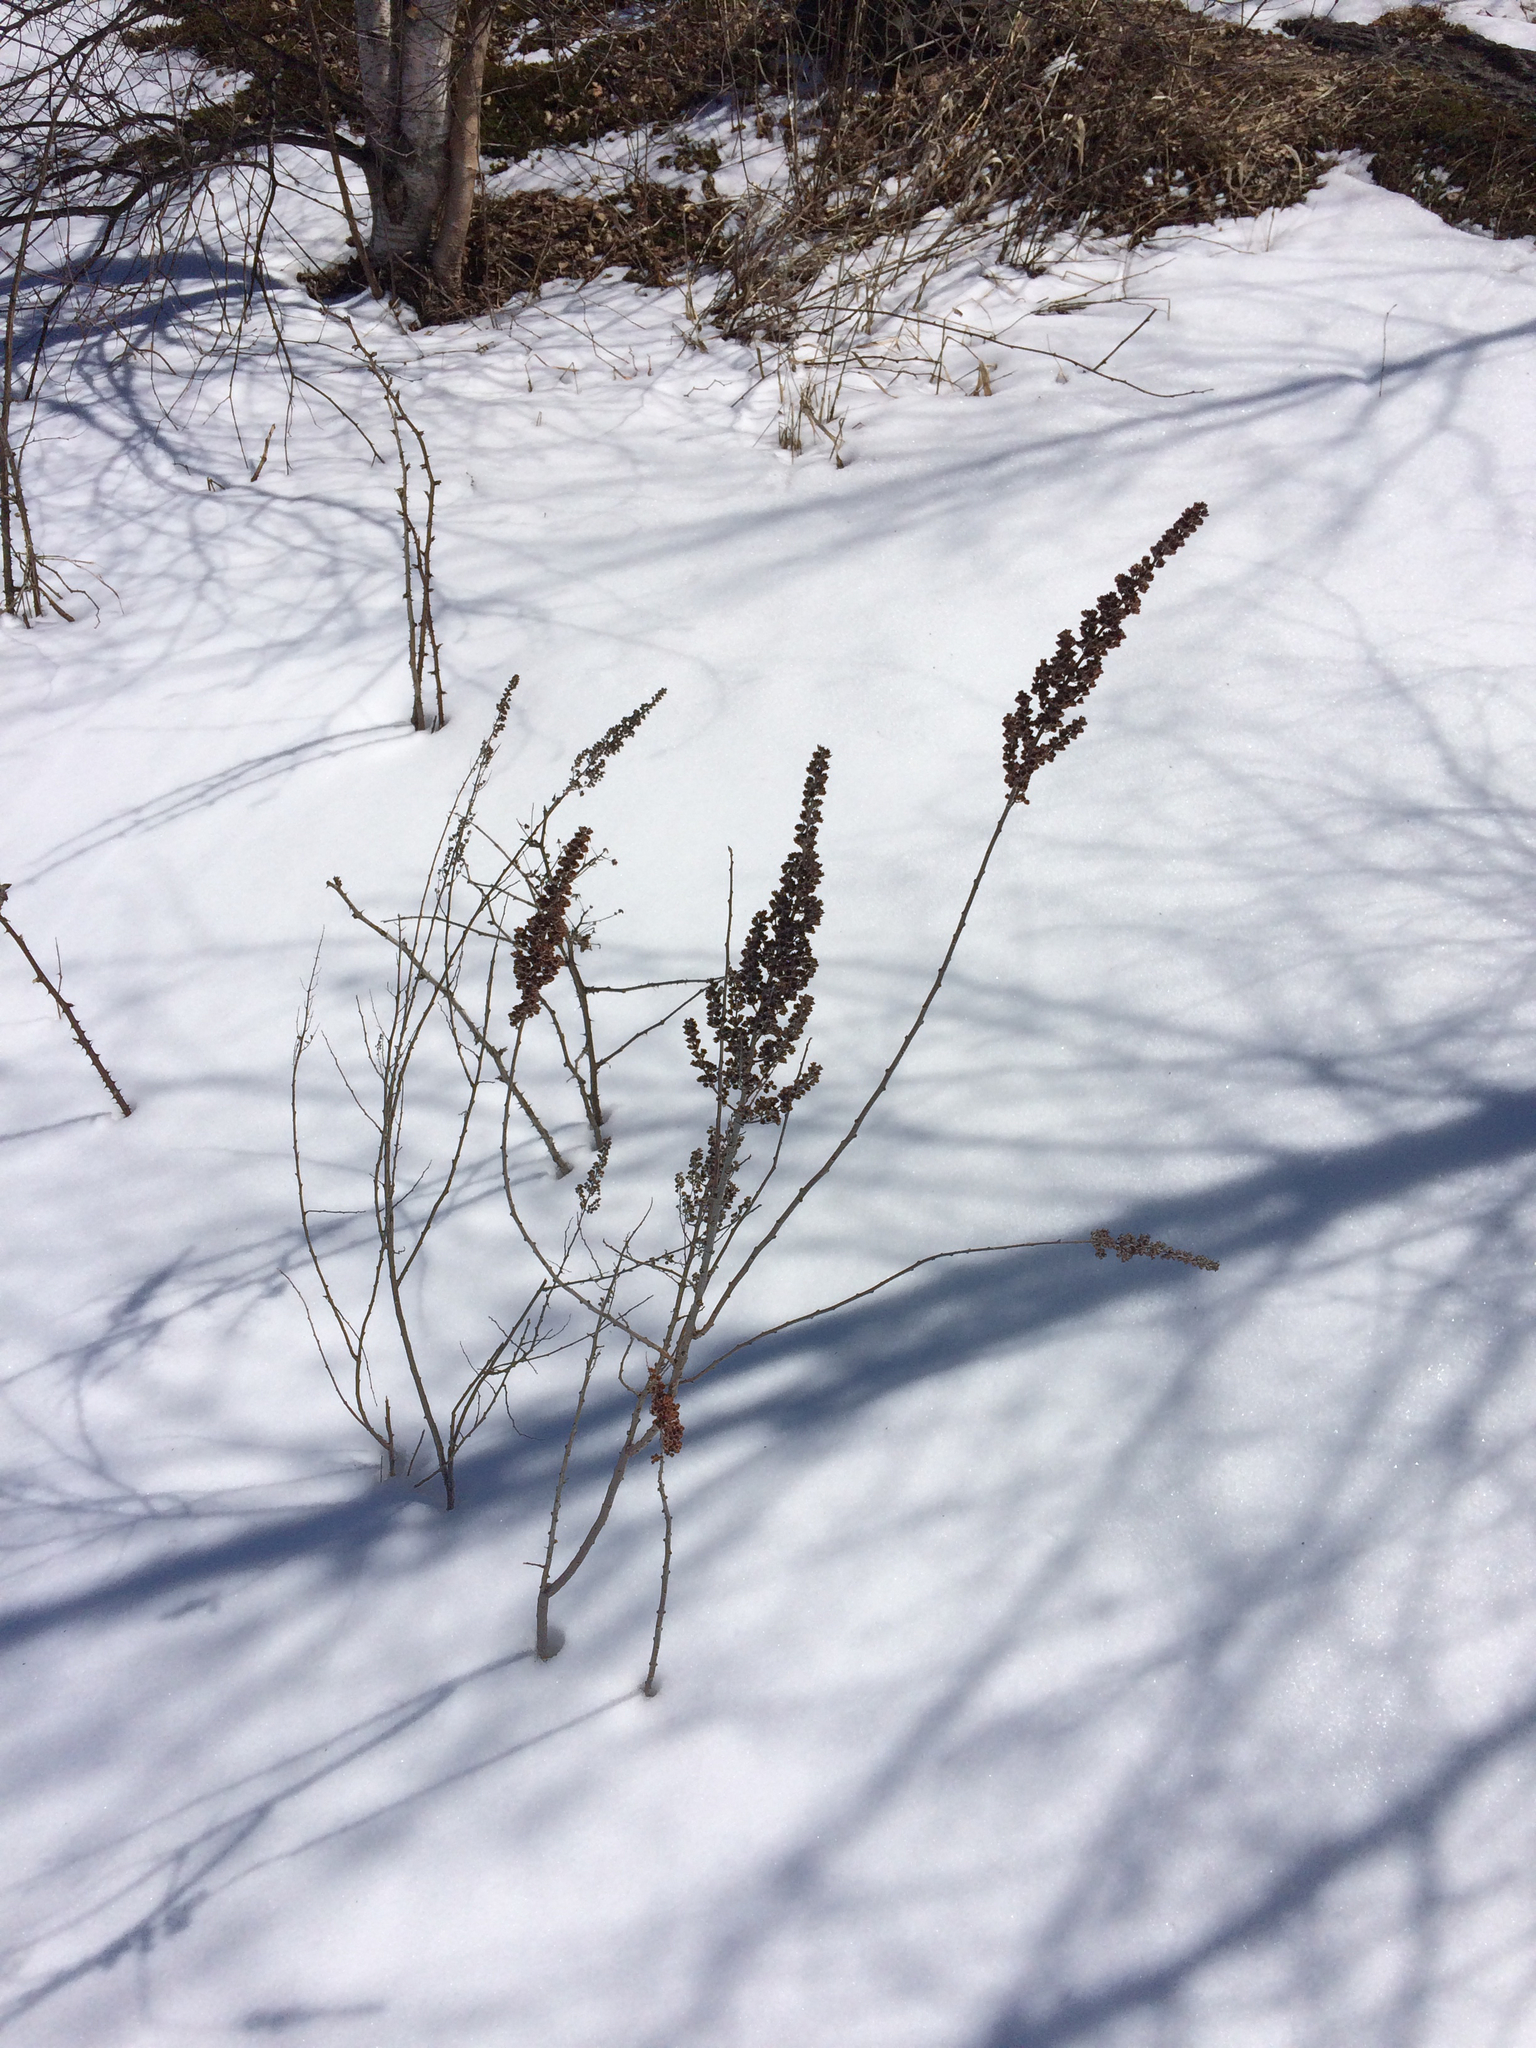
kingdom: Plantae
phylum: Tracheophyta
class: Magnoliopsida
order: Rosales
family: Rosaceae
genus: Spiraea
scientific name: Spiraea tomentosa
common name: Hardhack
